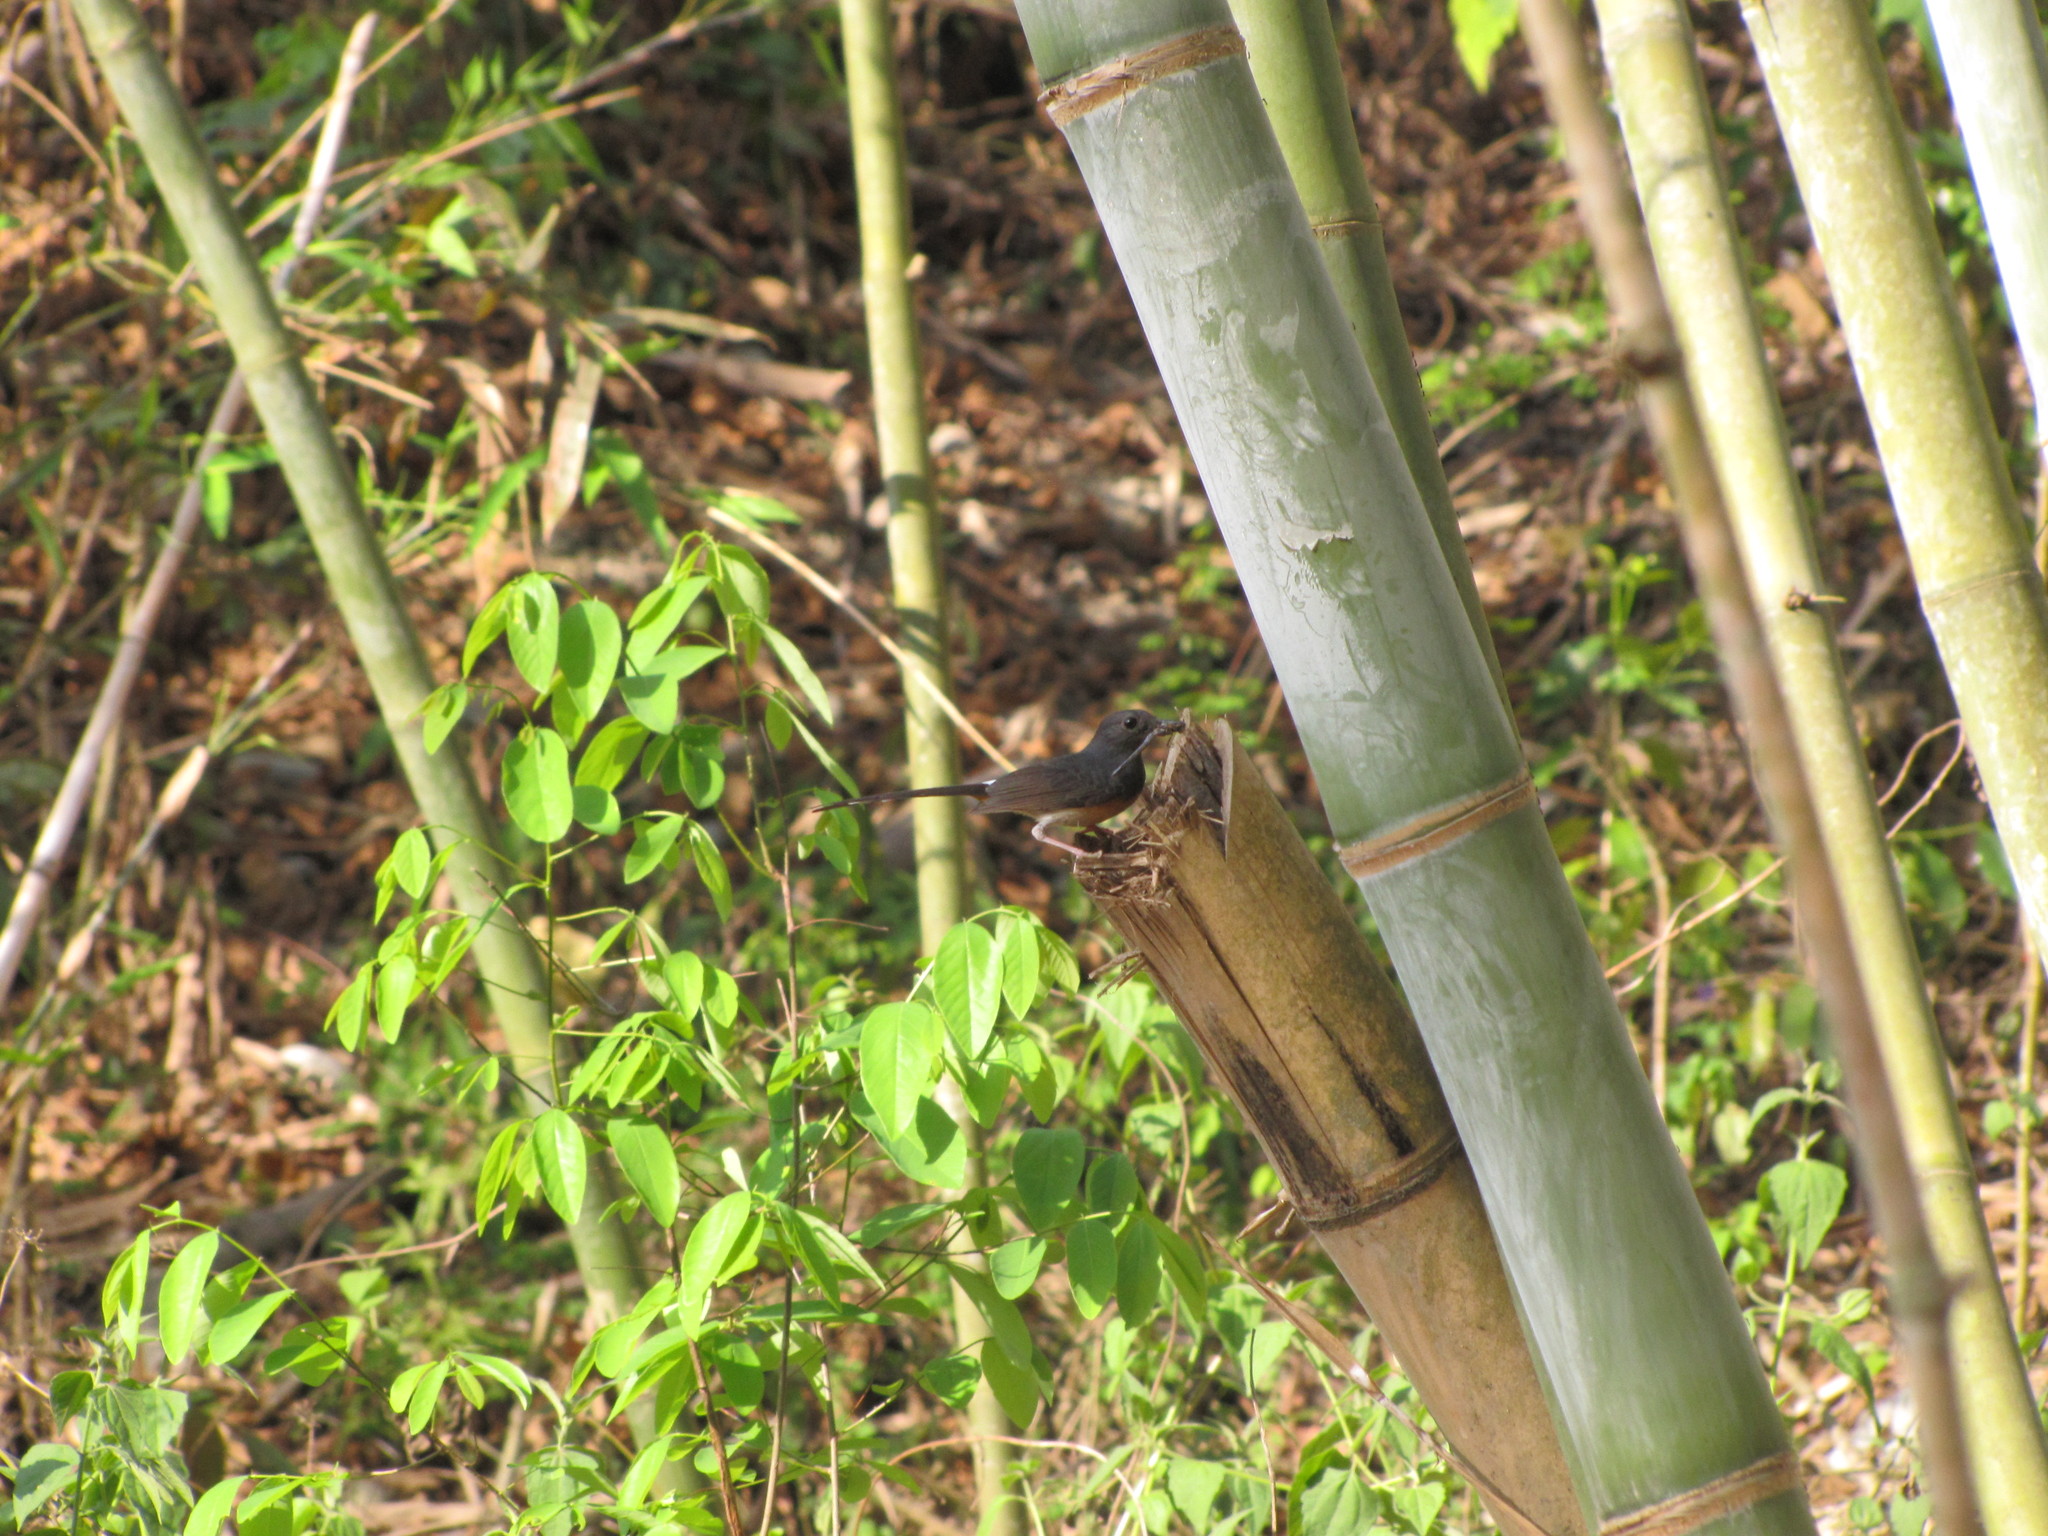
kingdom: Animalia
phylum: Chordata
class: Aves
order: Passeriformes
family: Muscicapidae
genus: Copsychus
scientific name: Copsychus malabaricus
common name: White-rumped shama
